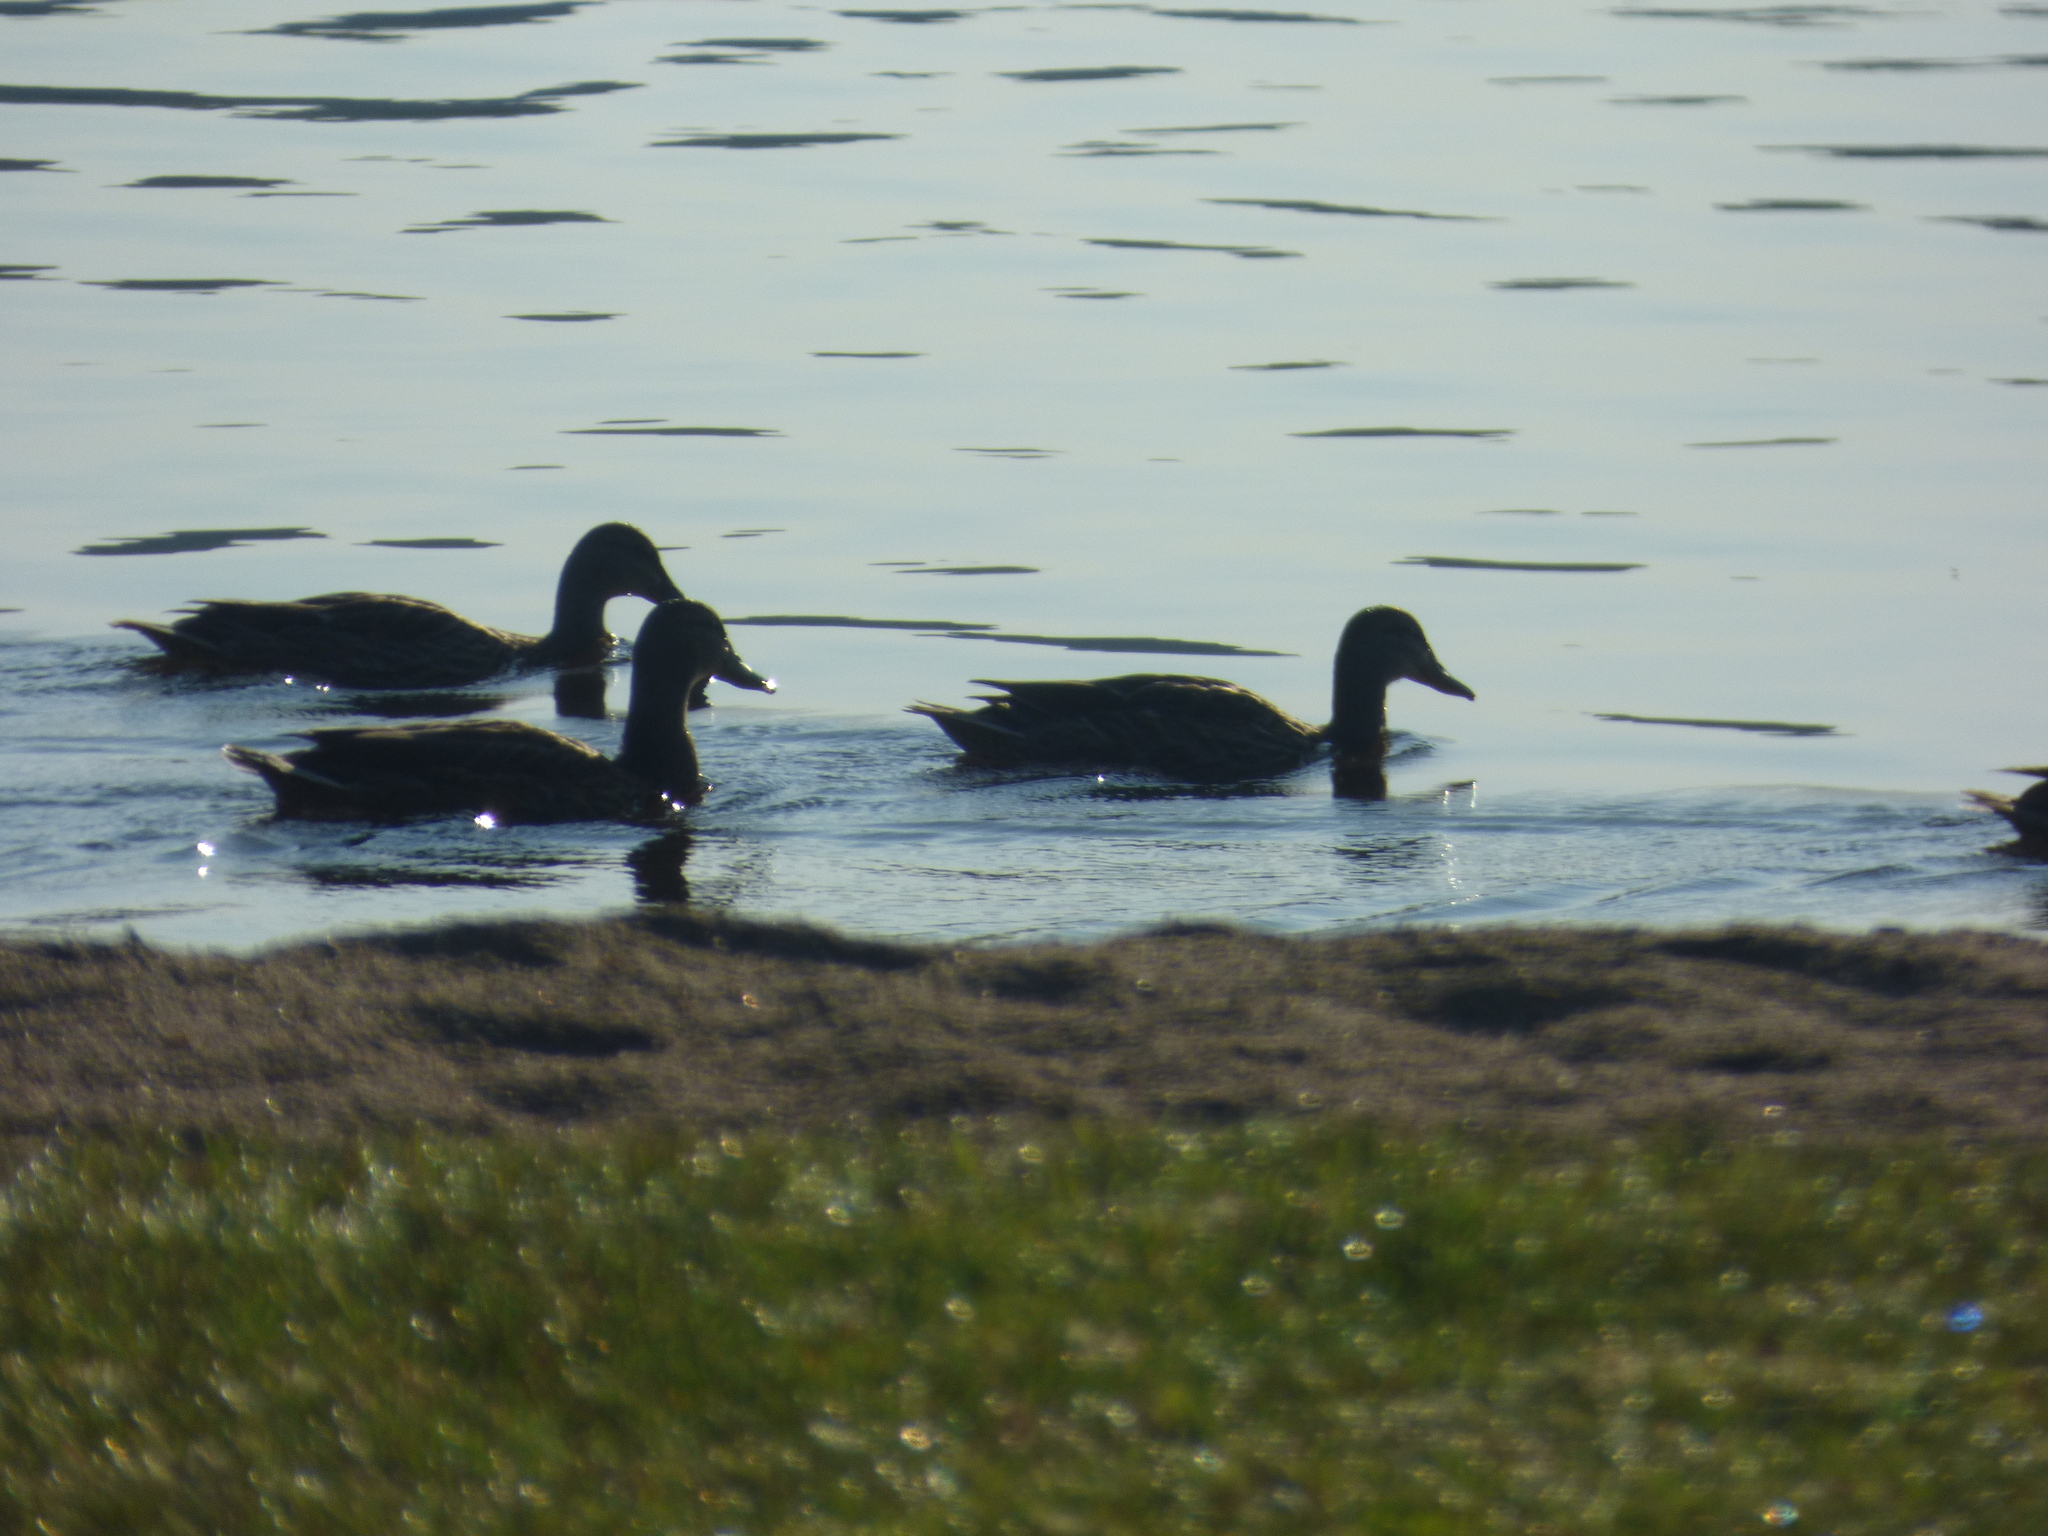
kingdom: Animalia
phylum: Chordata
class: Aves
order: Anseriformes
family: Anatidae
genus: Anas
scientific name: Anas platyrhynchos
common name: Mallard
